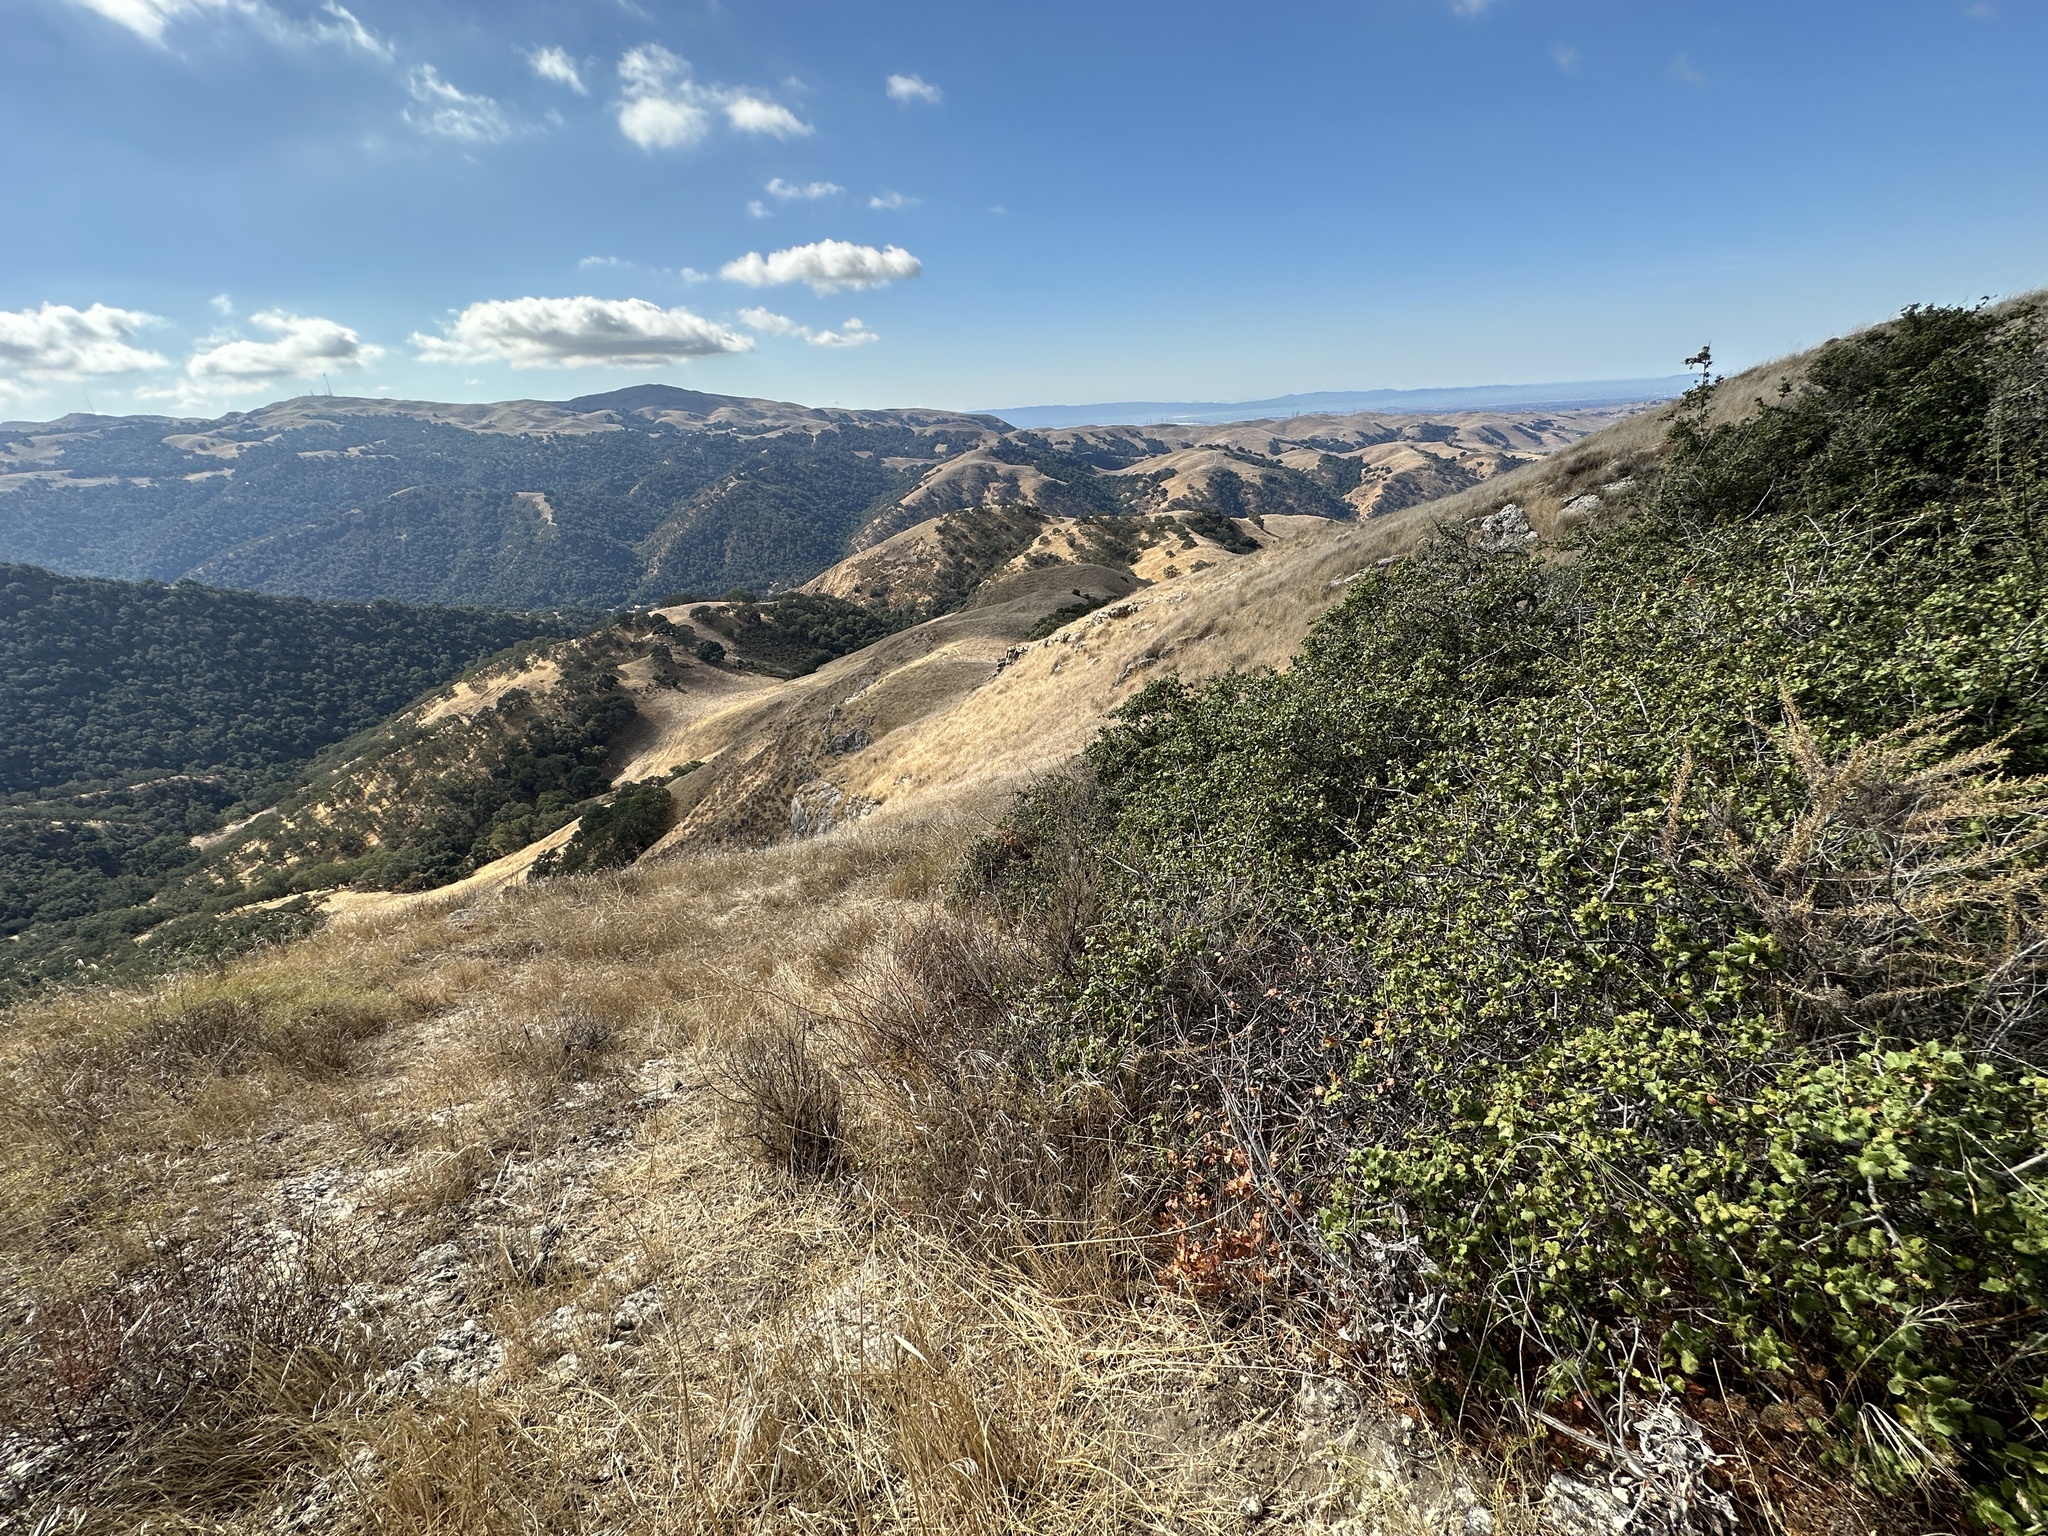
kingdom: Plantae
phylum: Tracheophyta
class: Magnoliopsida
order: Fagales
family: Fagaceae
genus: Quercus
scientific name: Quercus palmeri
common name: Dunn oak
